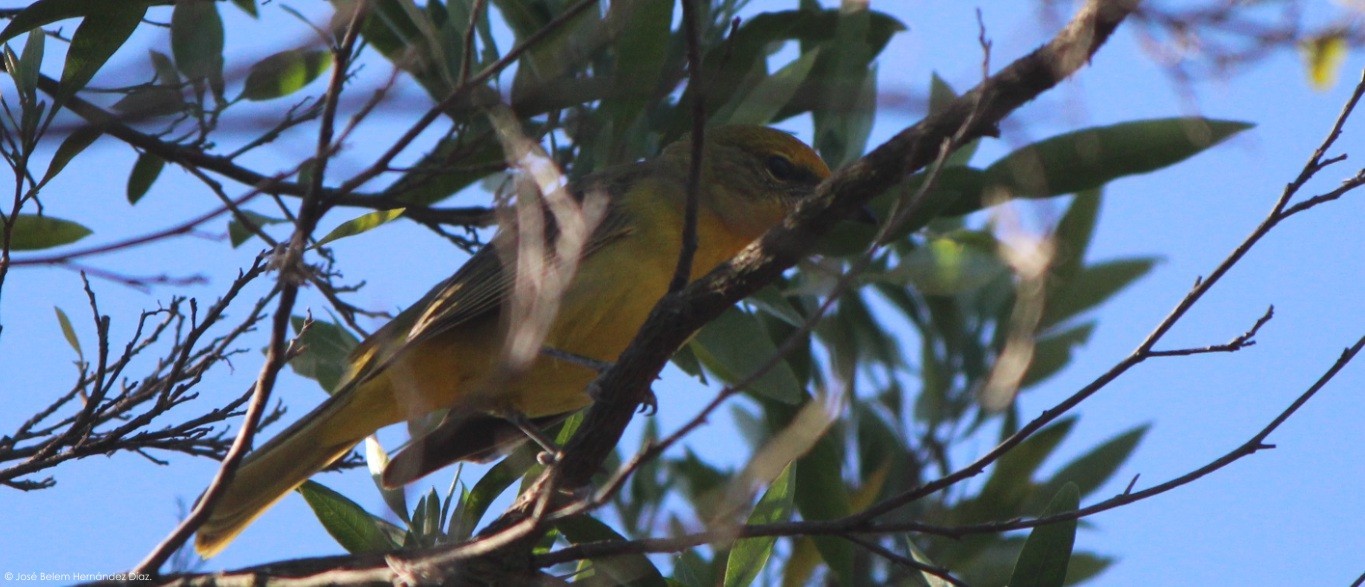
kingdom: Animalia
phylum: Chordata
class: Aves
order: Passeriformes
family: Cardinalidae
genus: Piranga
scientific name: Piranga flava
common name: Red tanager
